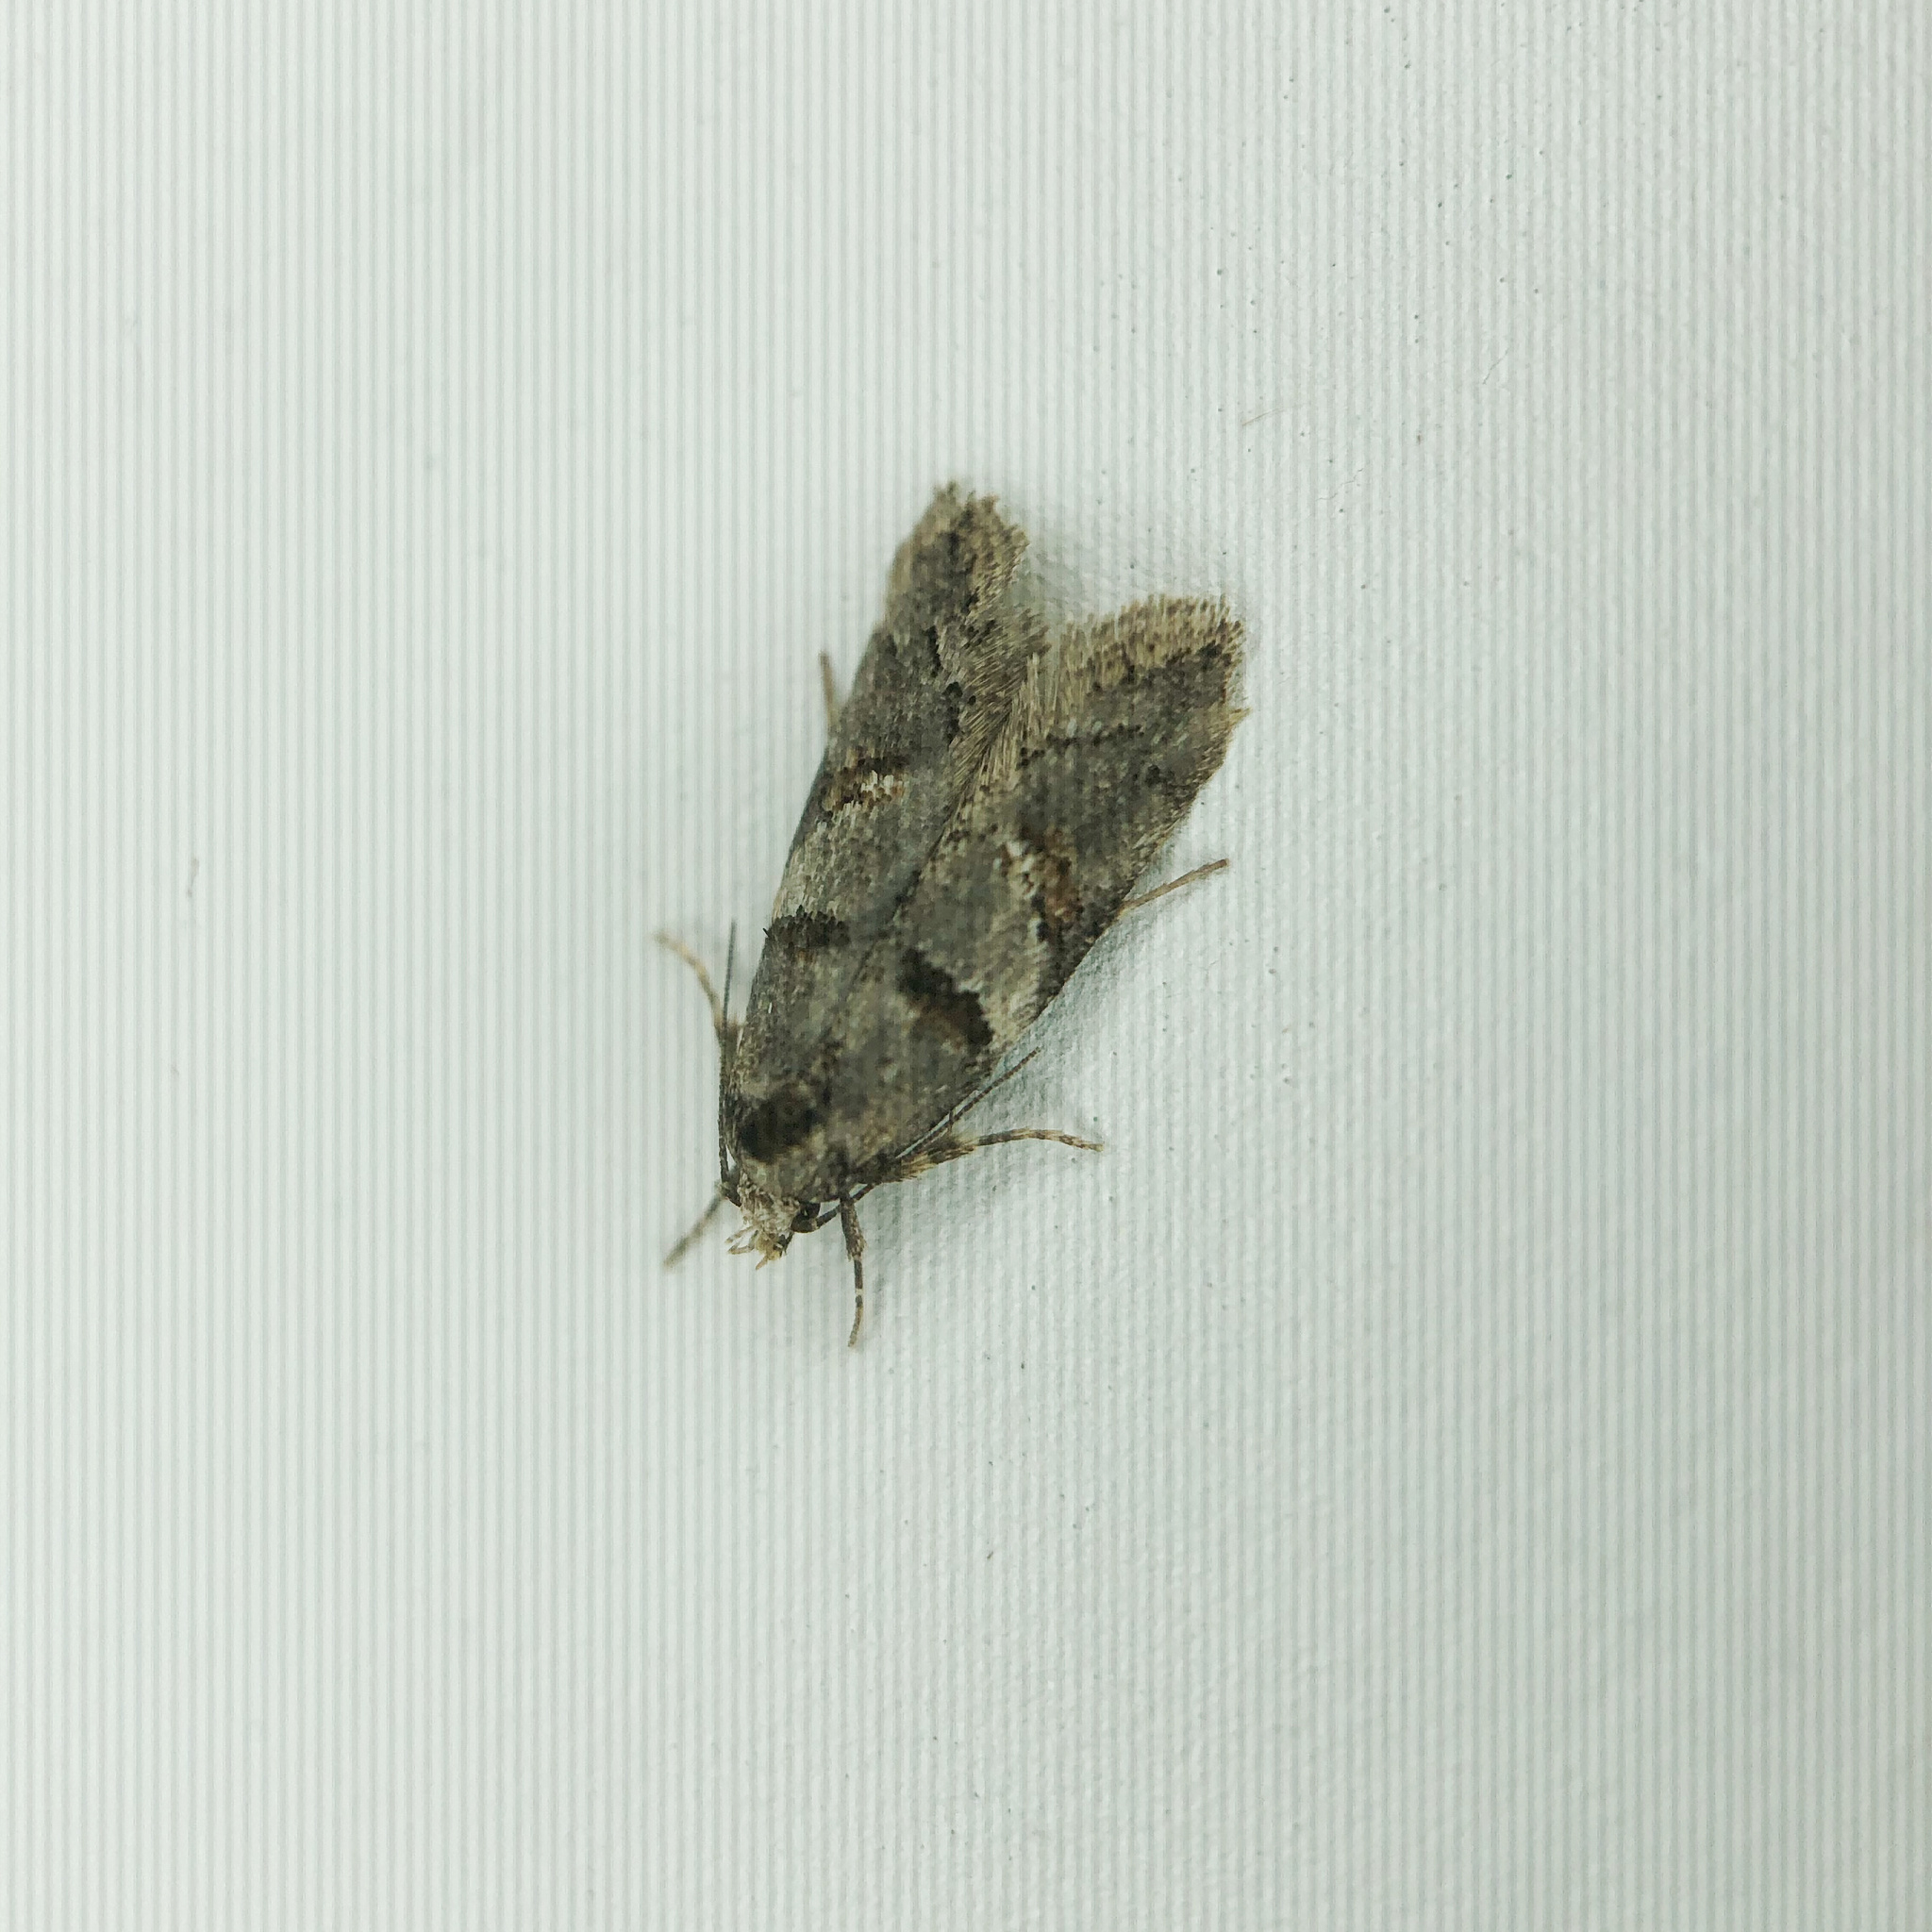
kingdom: Animalia
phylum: Arthropoda
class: Insecta
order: Lepidoptera
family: Oecophoridae
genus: Trachypepla
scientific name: Trachypepla contritella
